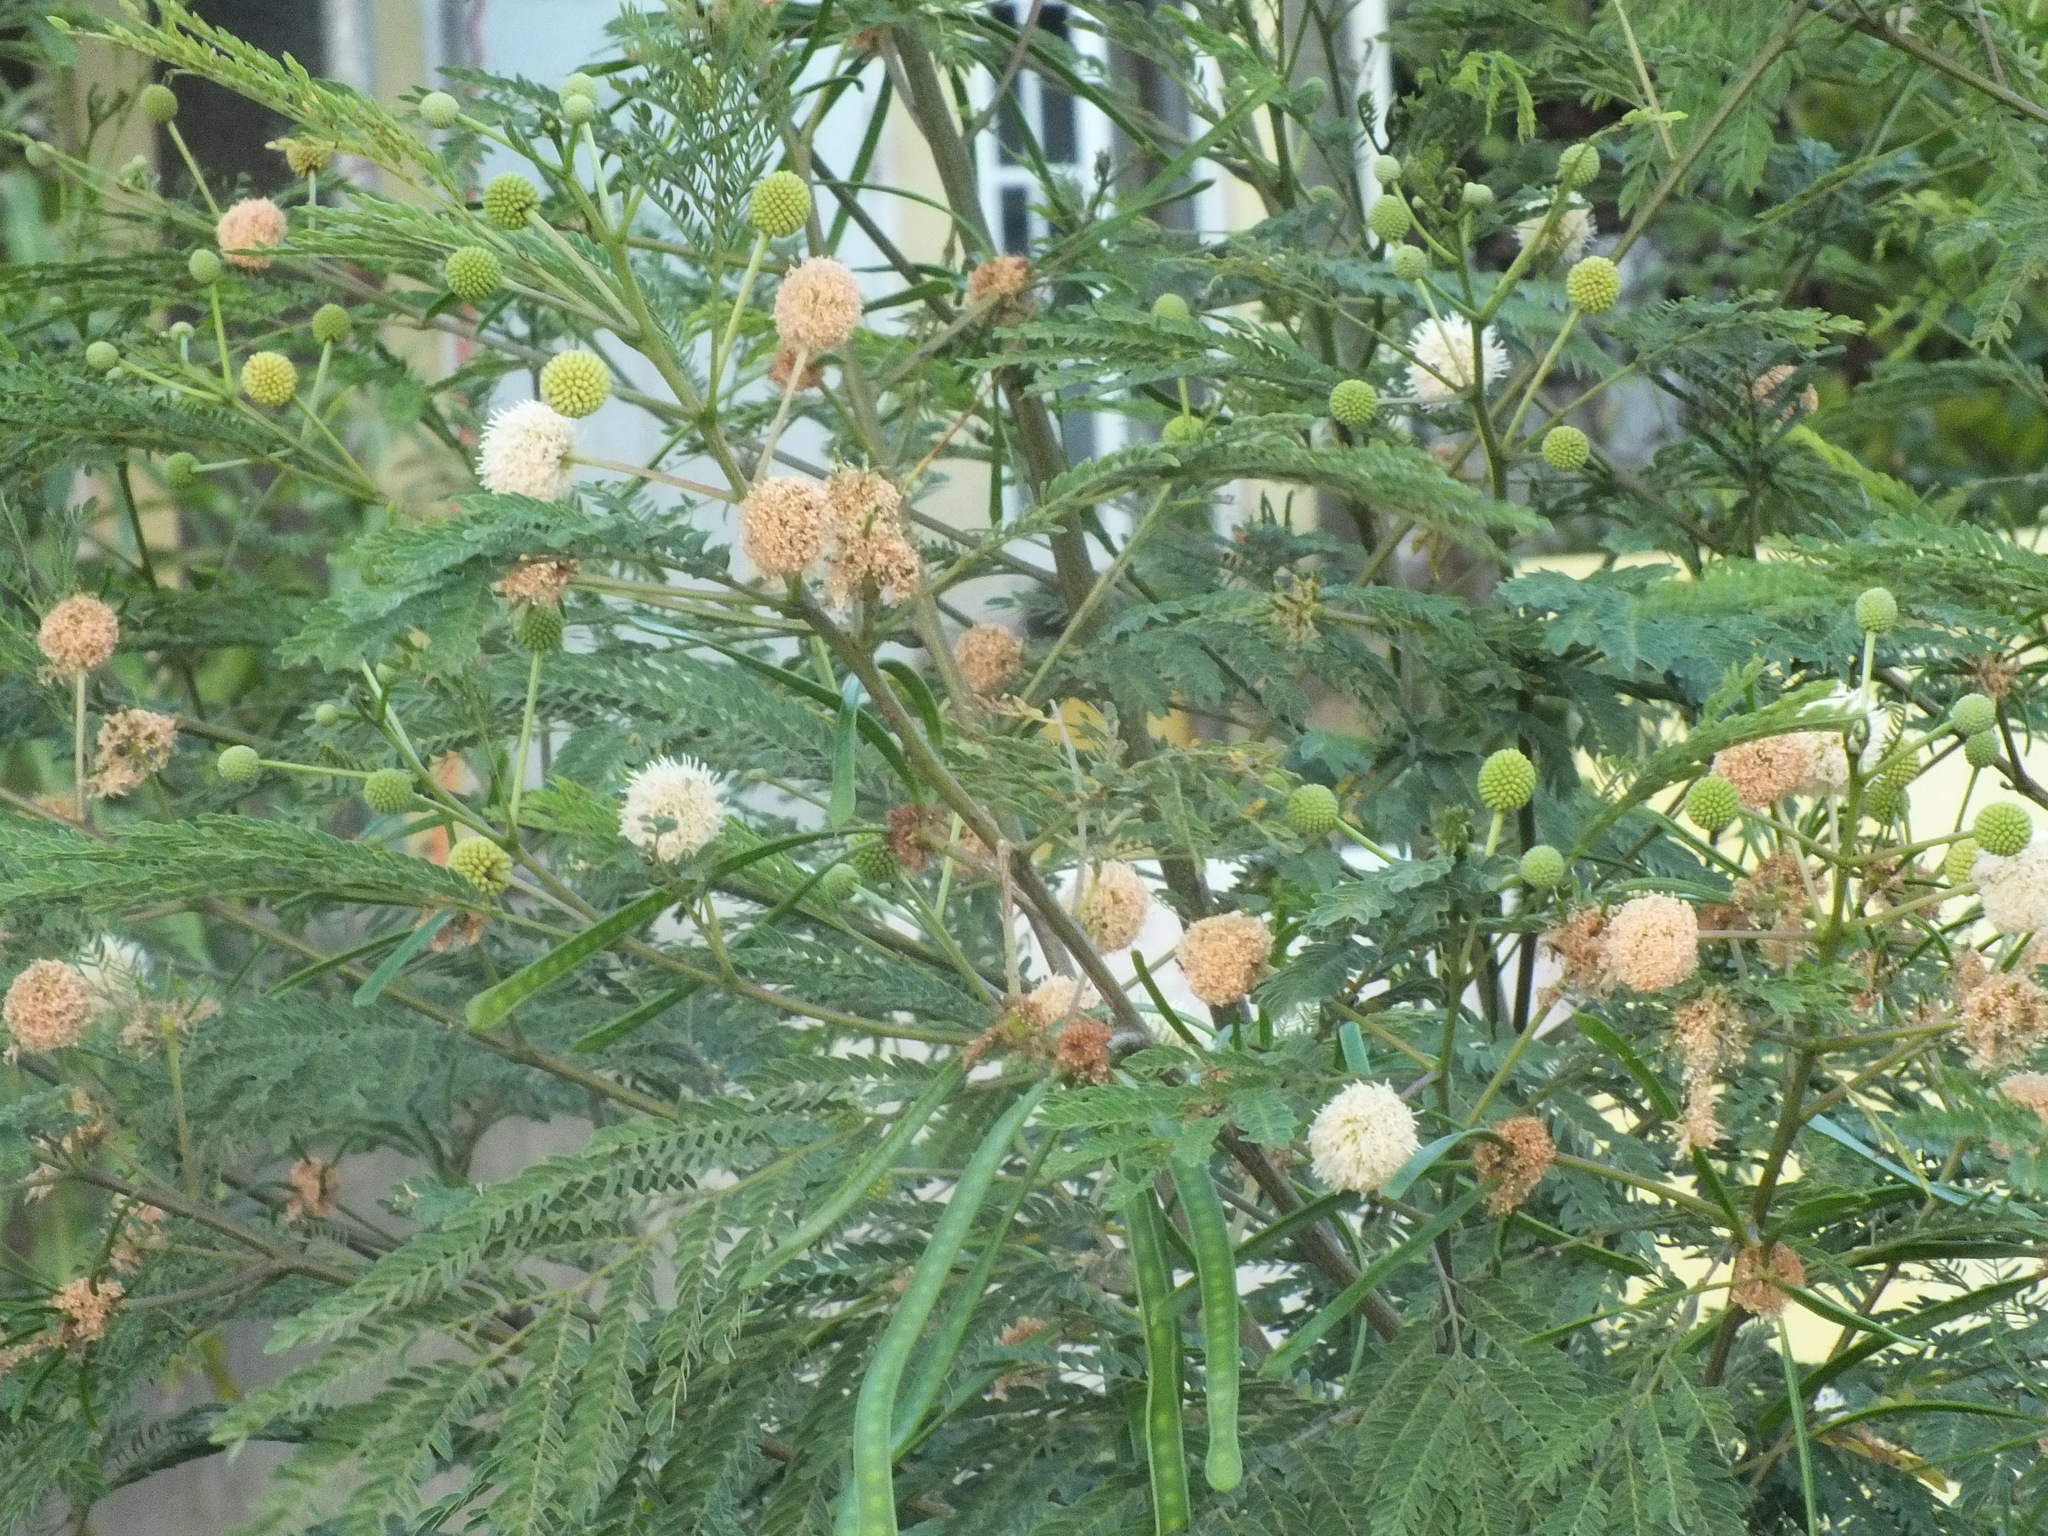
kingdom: Plantae
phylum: Tracheophyta
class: Magnoliopsida
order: Fabales
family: Fabaceae
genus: Leucaena
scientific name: Leucaena leucocephala
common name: White leadtree
